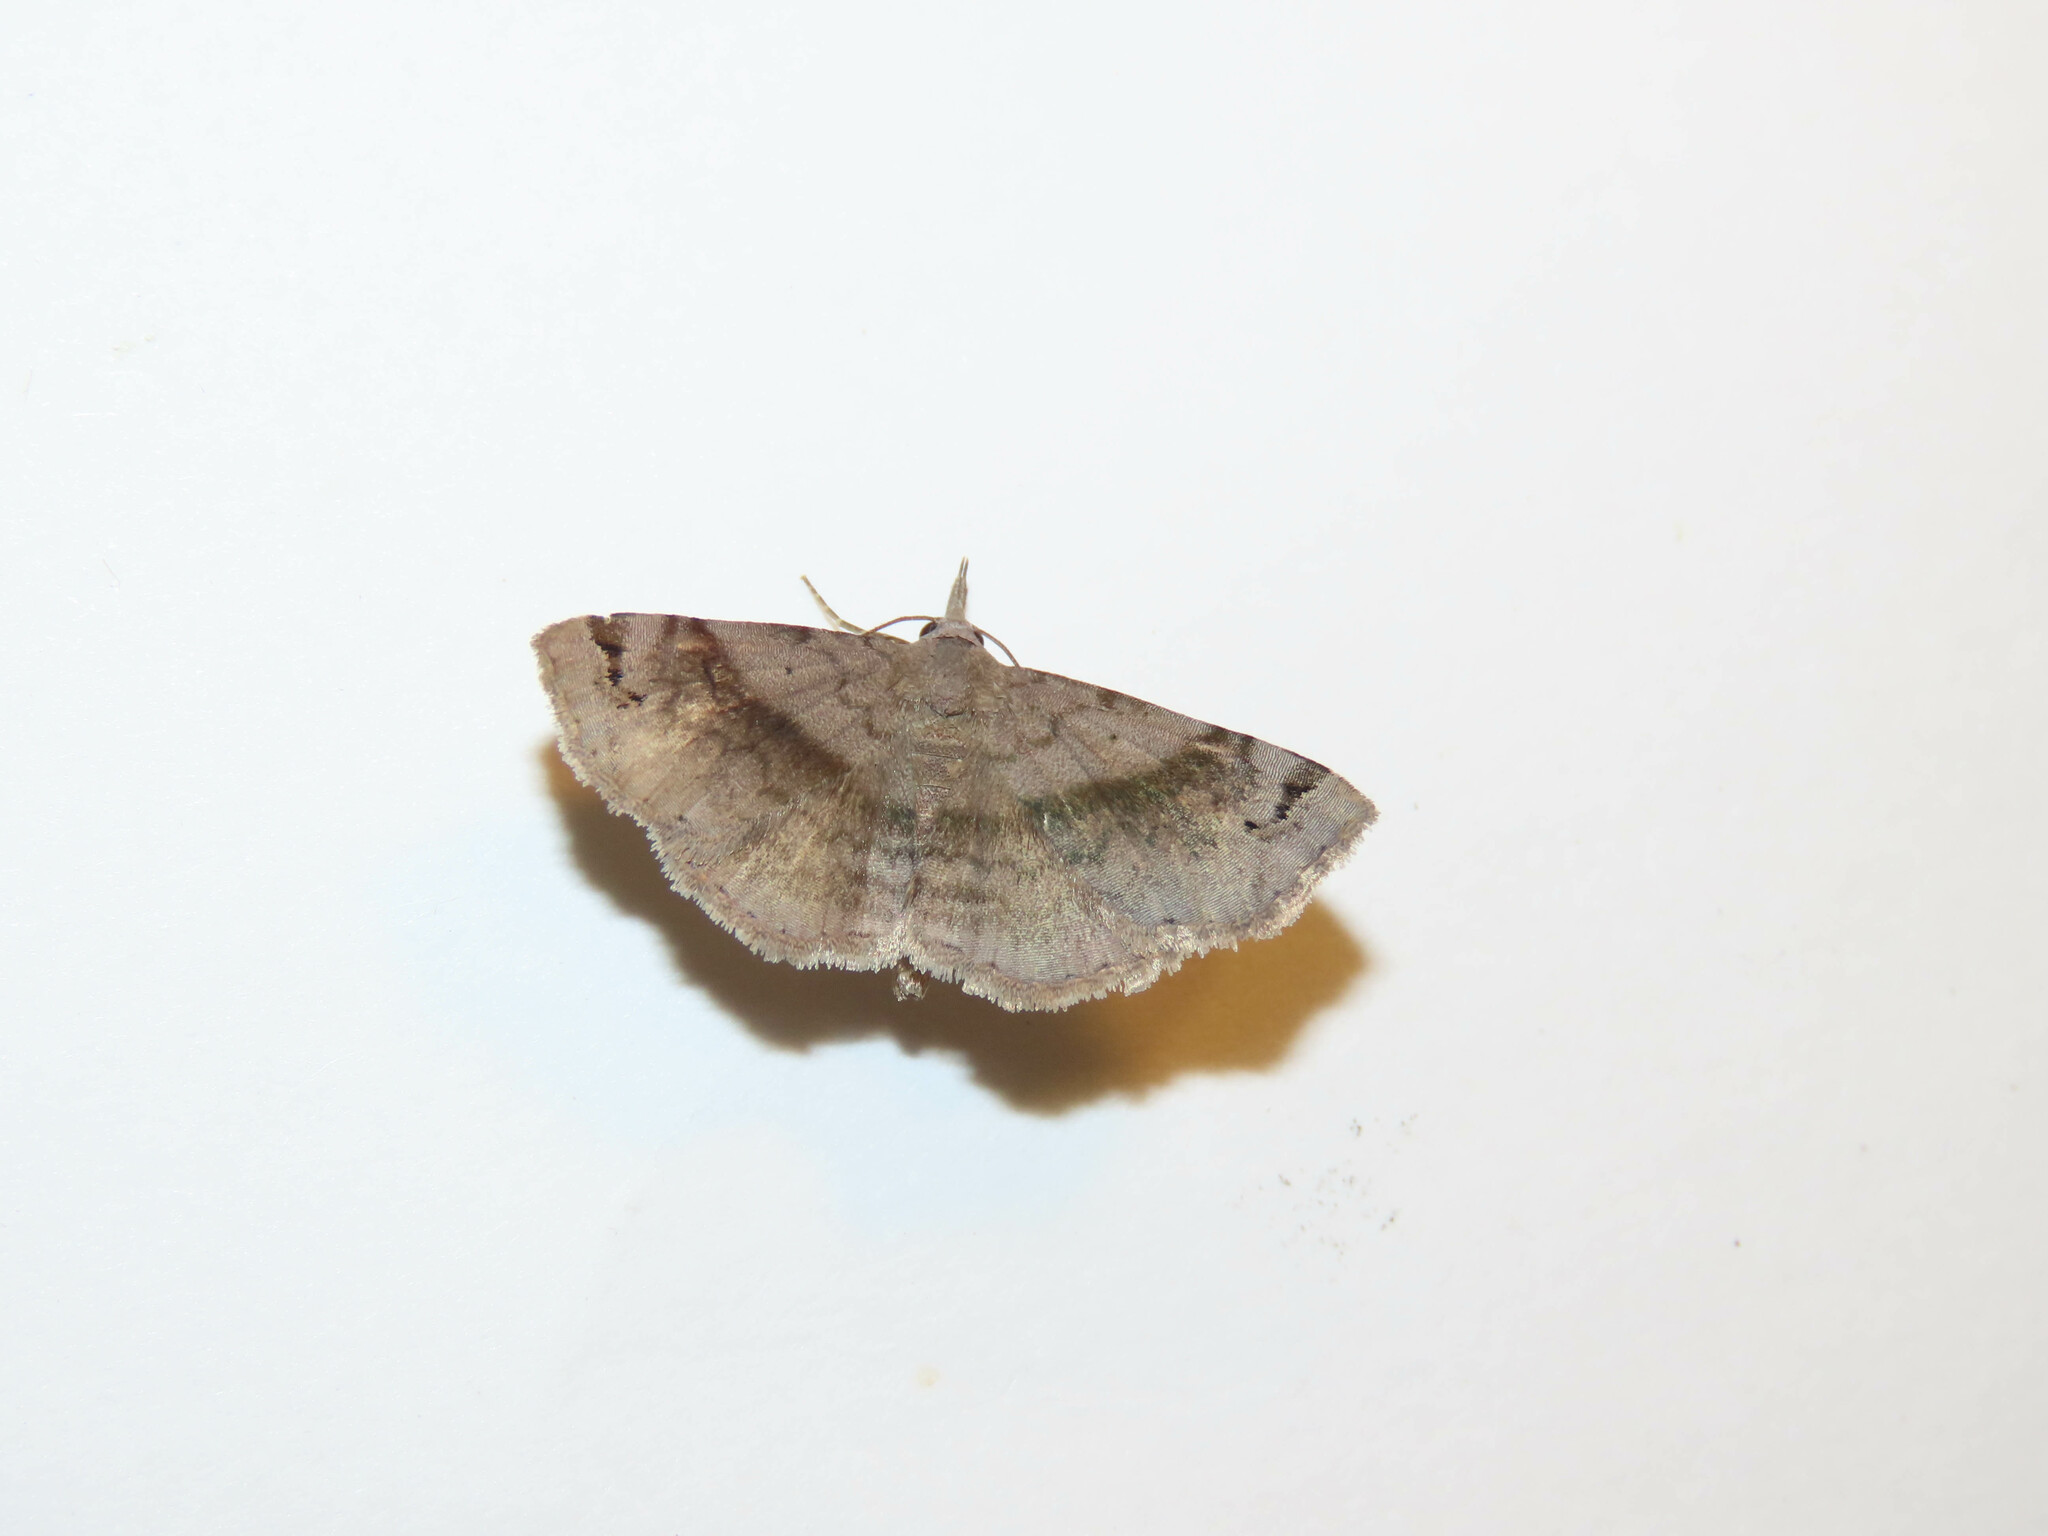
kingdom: Animalia
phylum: Arthropoda
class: Insecta
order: Lepidoptera
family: Erebidae
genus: Spargaloma
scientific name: Spargaloma sexpunctata
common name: Six-spotted gray
